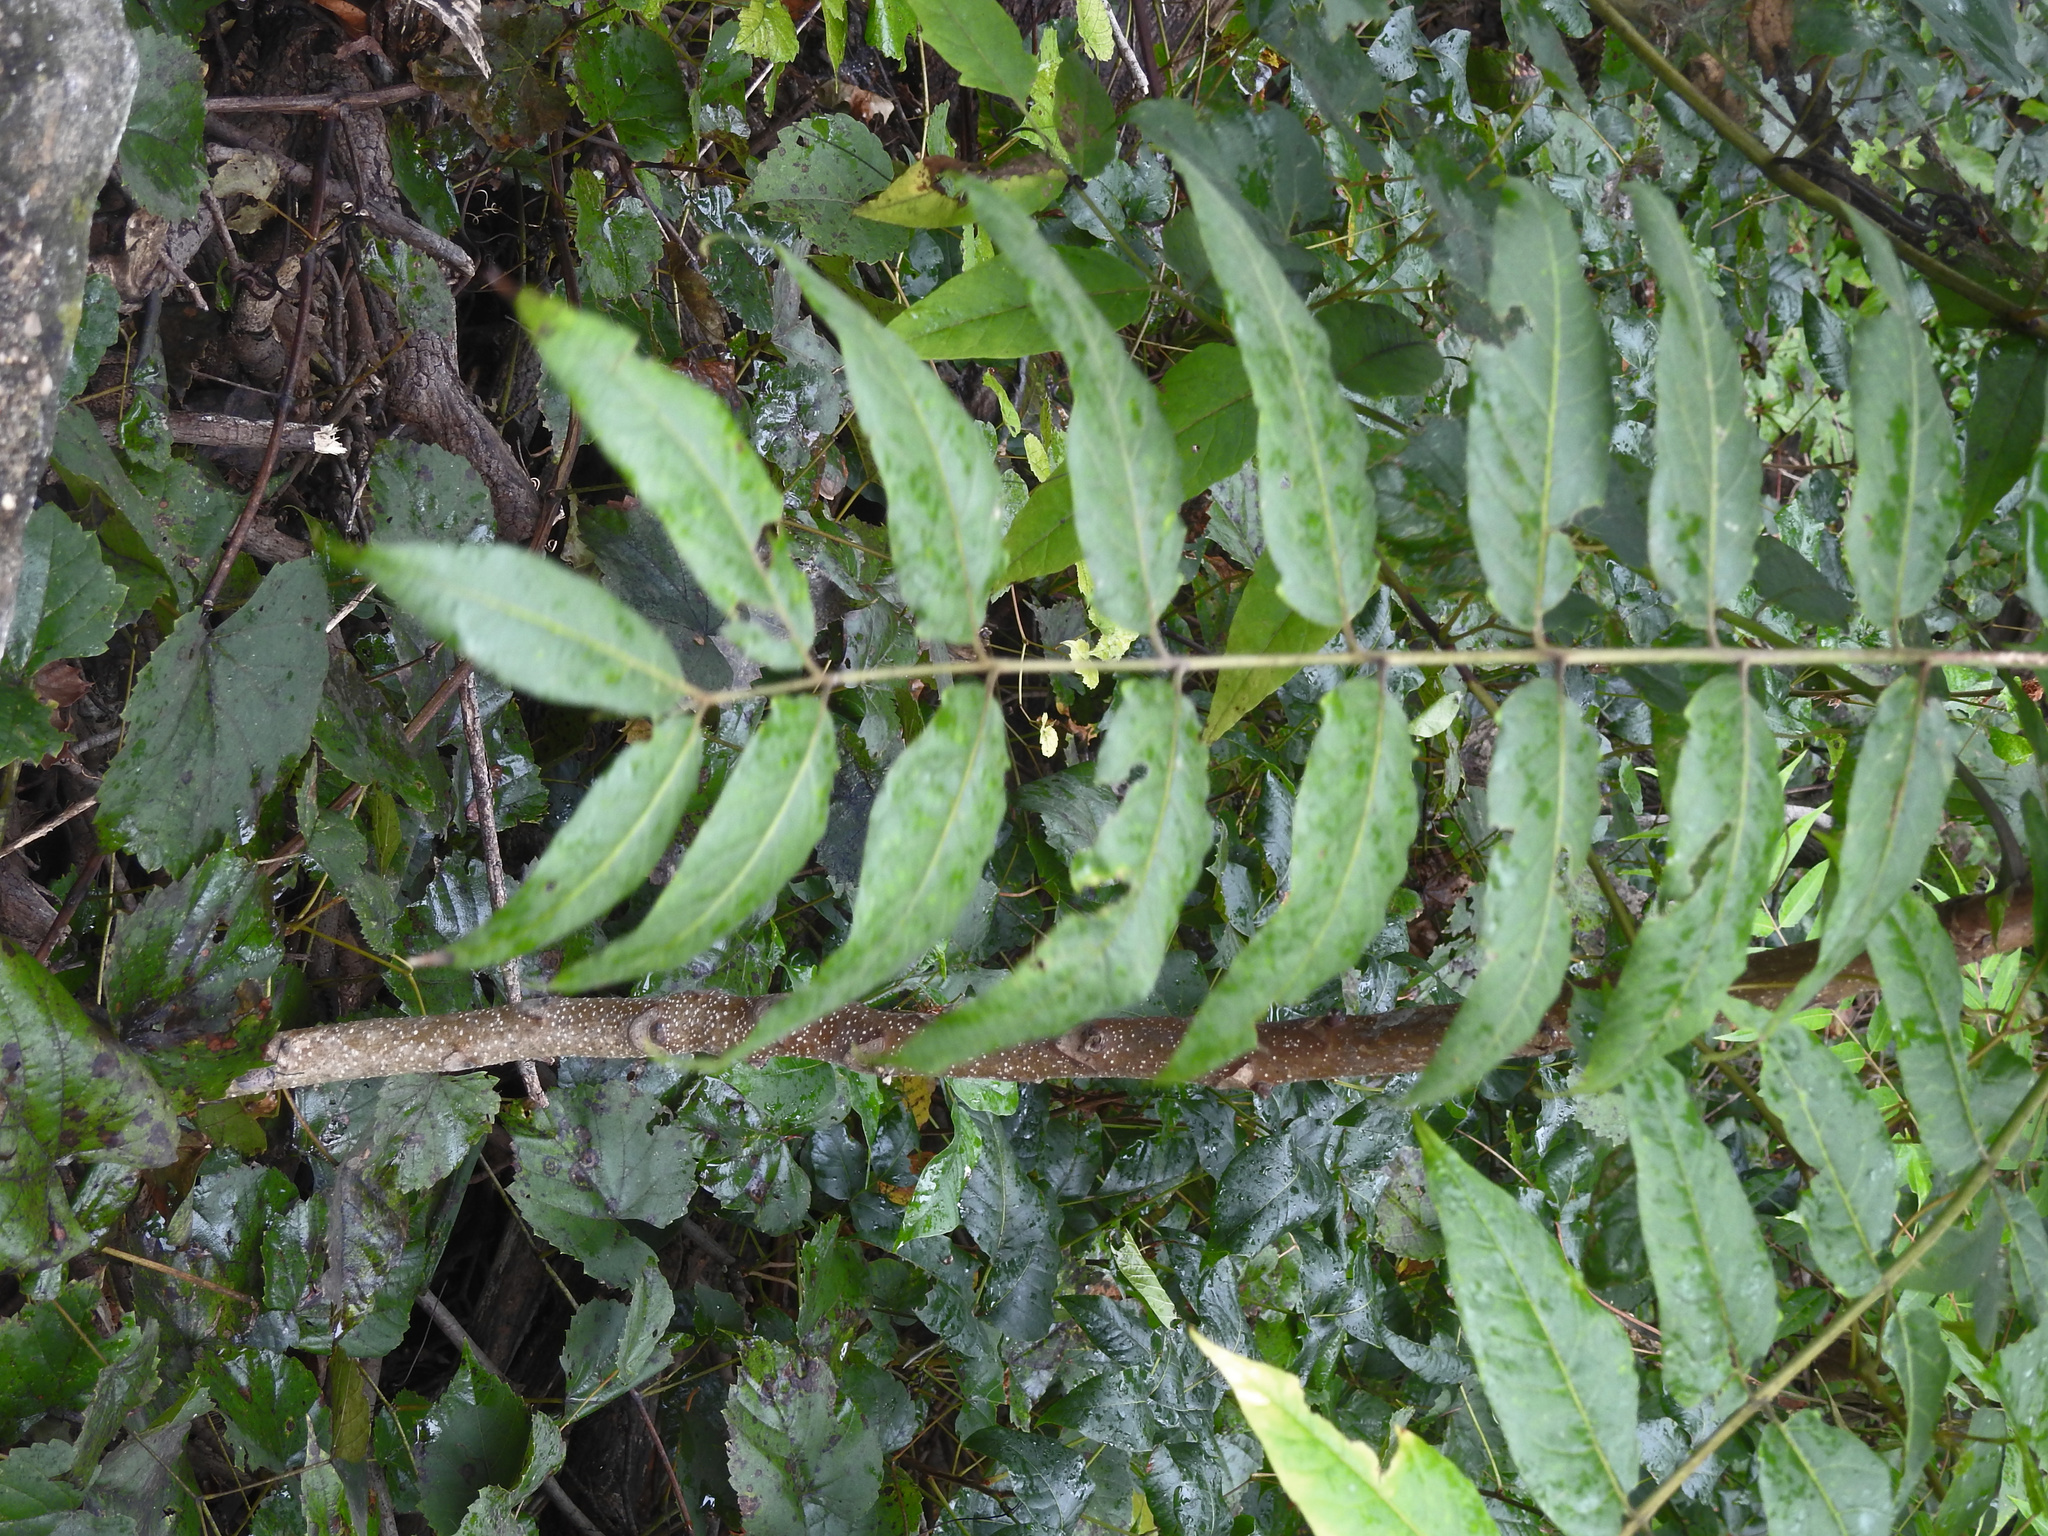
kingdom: Plantae
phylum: Tracheophyta
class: Magnoliopsida
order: Sapindales
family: Simaroubaceae
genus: Ailanthus
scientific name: Ailanthus altissima
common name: Tree-of-heaven
